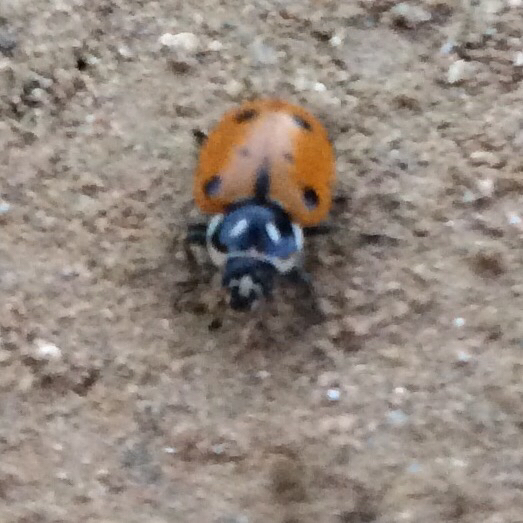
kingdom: Animalia
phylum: Arthropoda
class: Insecta
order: Coleoptera
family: Coccinellidae
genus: Hippodamia
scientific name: Hippodamia convergens
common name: Convergent lady beetle
